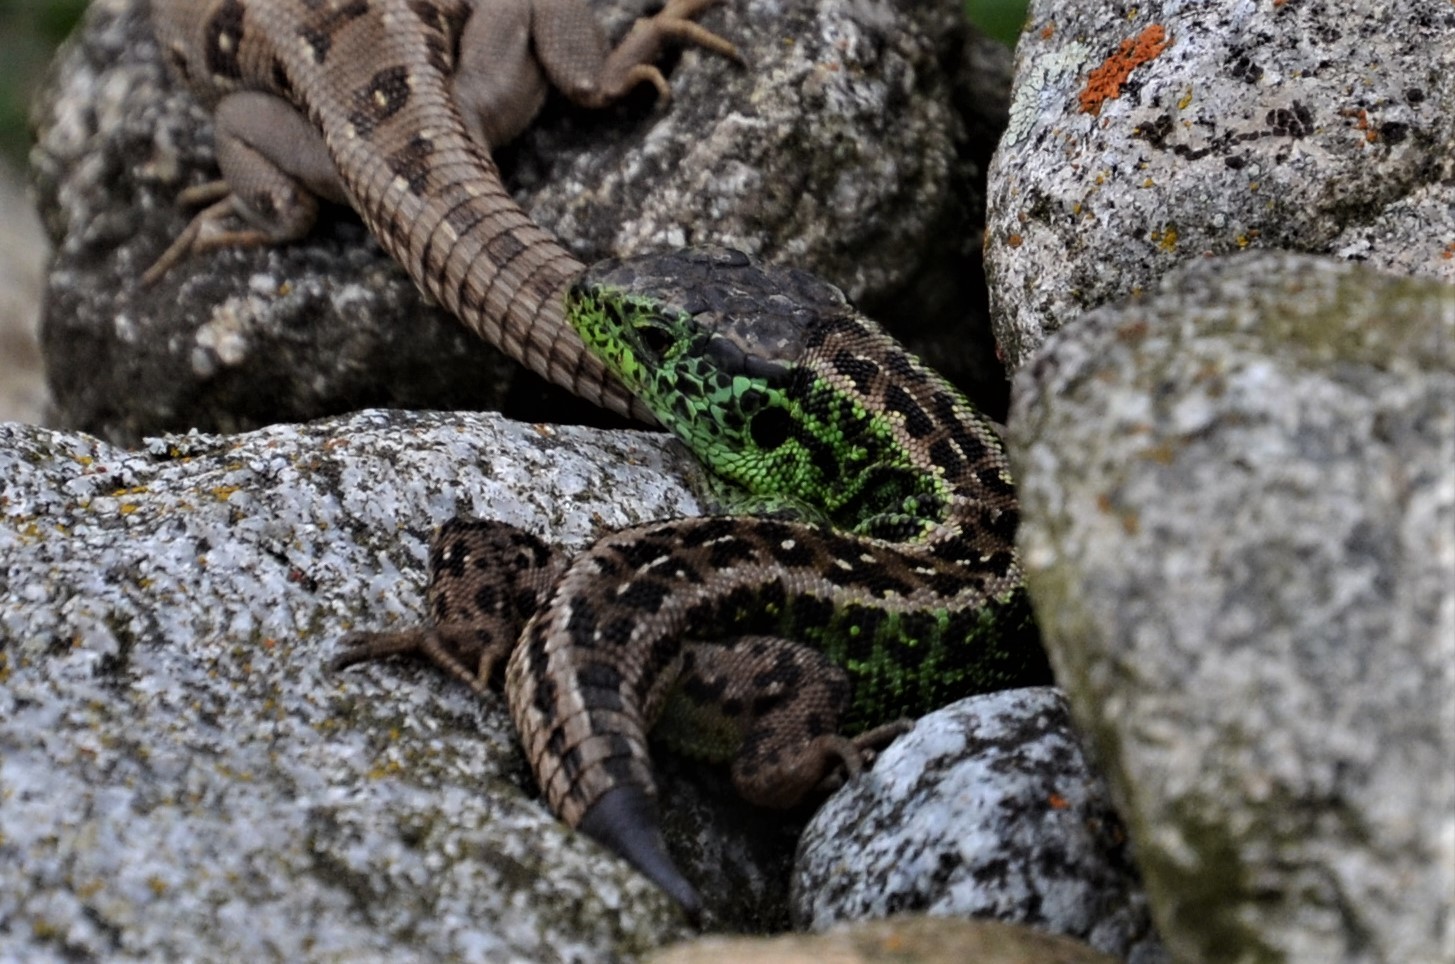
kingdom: Animalia
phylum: Chordata
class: Squamata
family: Lacertidae
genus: Lacerta
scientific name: Lacerta agilis
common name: Sand lizard
